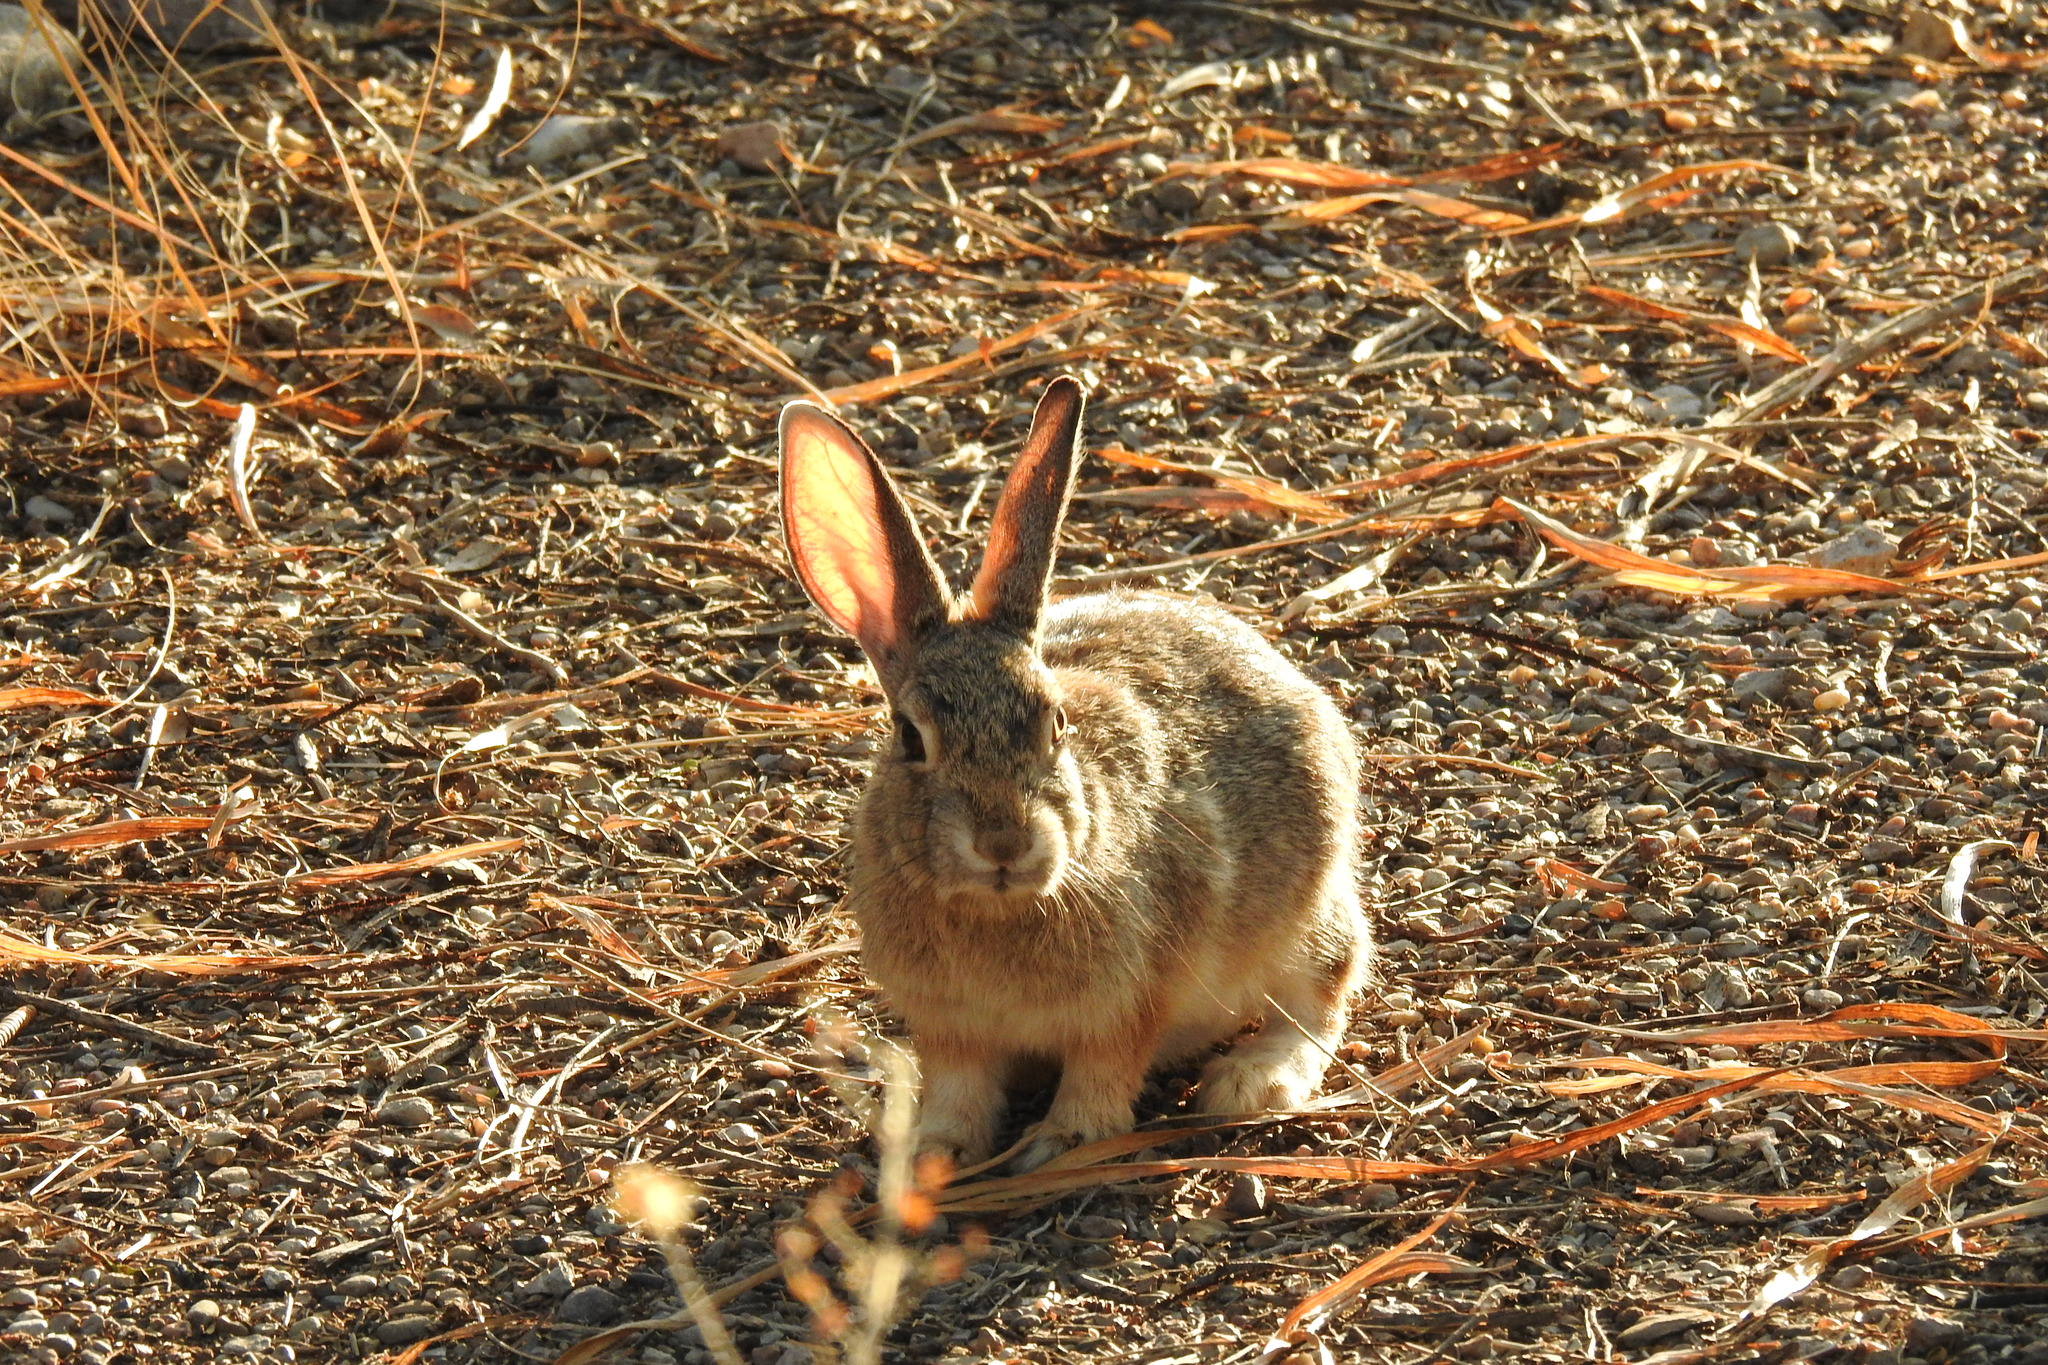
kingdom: Animalia
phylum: Chordata
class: Mammalia
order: Lagomorpha
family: Leporidae
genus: Sylvilagus
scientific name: Sylvilagus audubonii
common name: Desert cottontail
